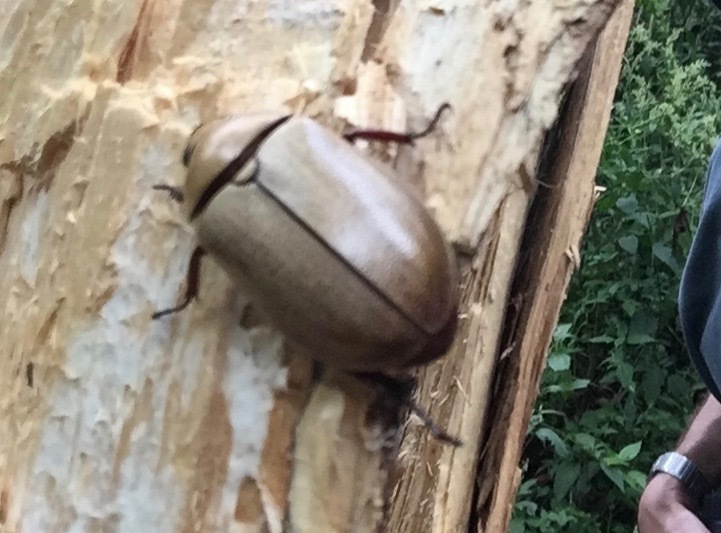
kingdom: Animalia
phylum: Arthropoda
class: Insecta
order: Coleoptera
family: Scarabaeidae
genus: Heterosternus
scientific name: Heterosternus oberthueri
